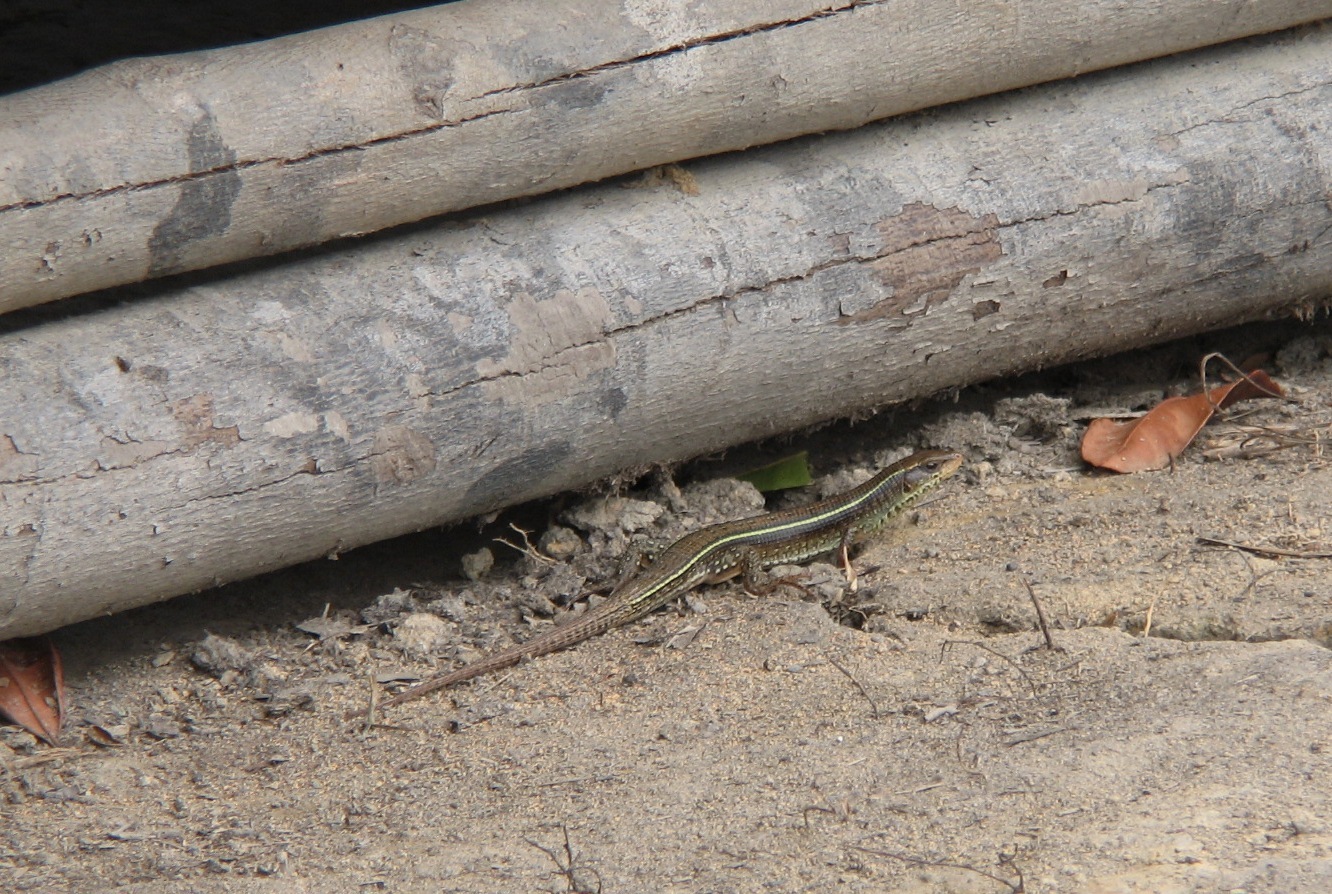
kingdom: Animalia
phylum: Chordata
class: Squamata
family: Gerrhosauridae
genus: Gerrhosaurus
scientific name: Gerrhosaurus nigrolineatus
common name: Black-lined plated lizard
